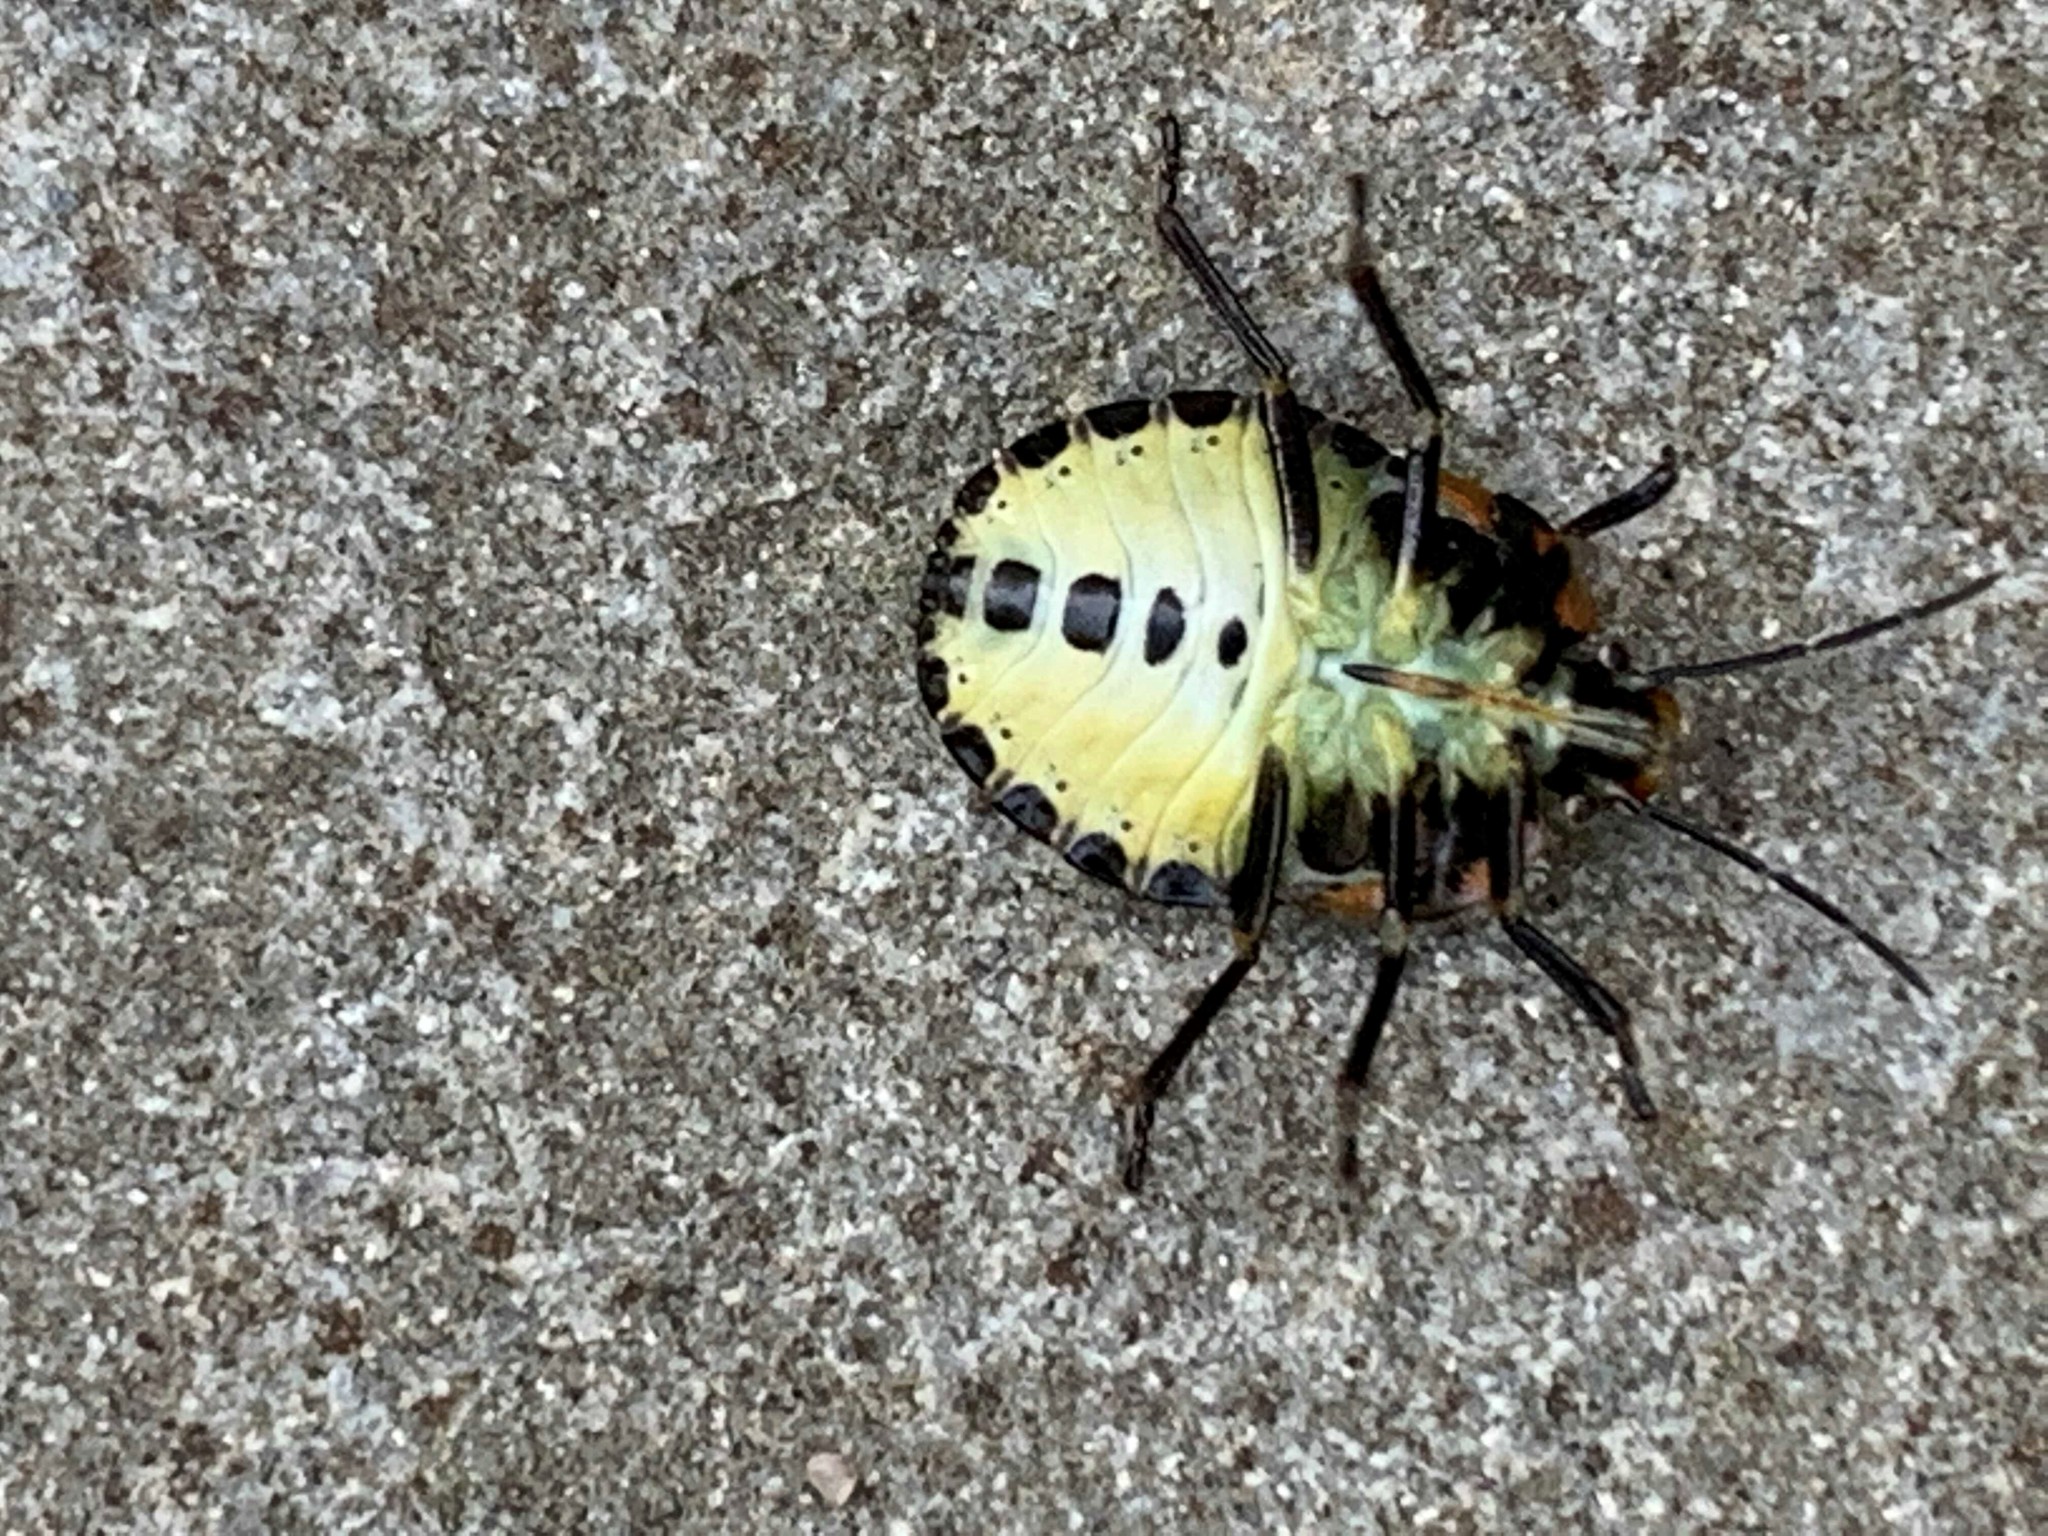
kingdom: Animalia
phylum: Arthropoda
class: Insecta
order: Hemiptera
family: Pentatomidae
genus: Chinavia
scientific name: Chinavia hilaris
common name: Green stink bug
